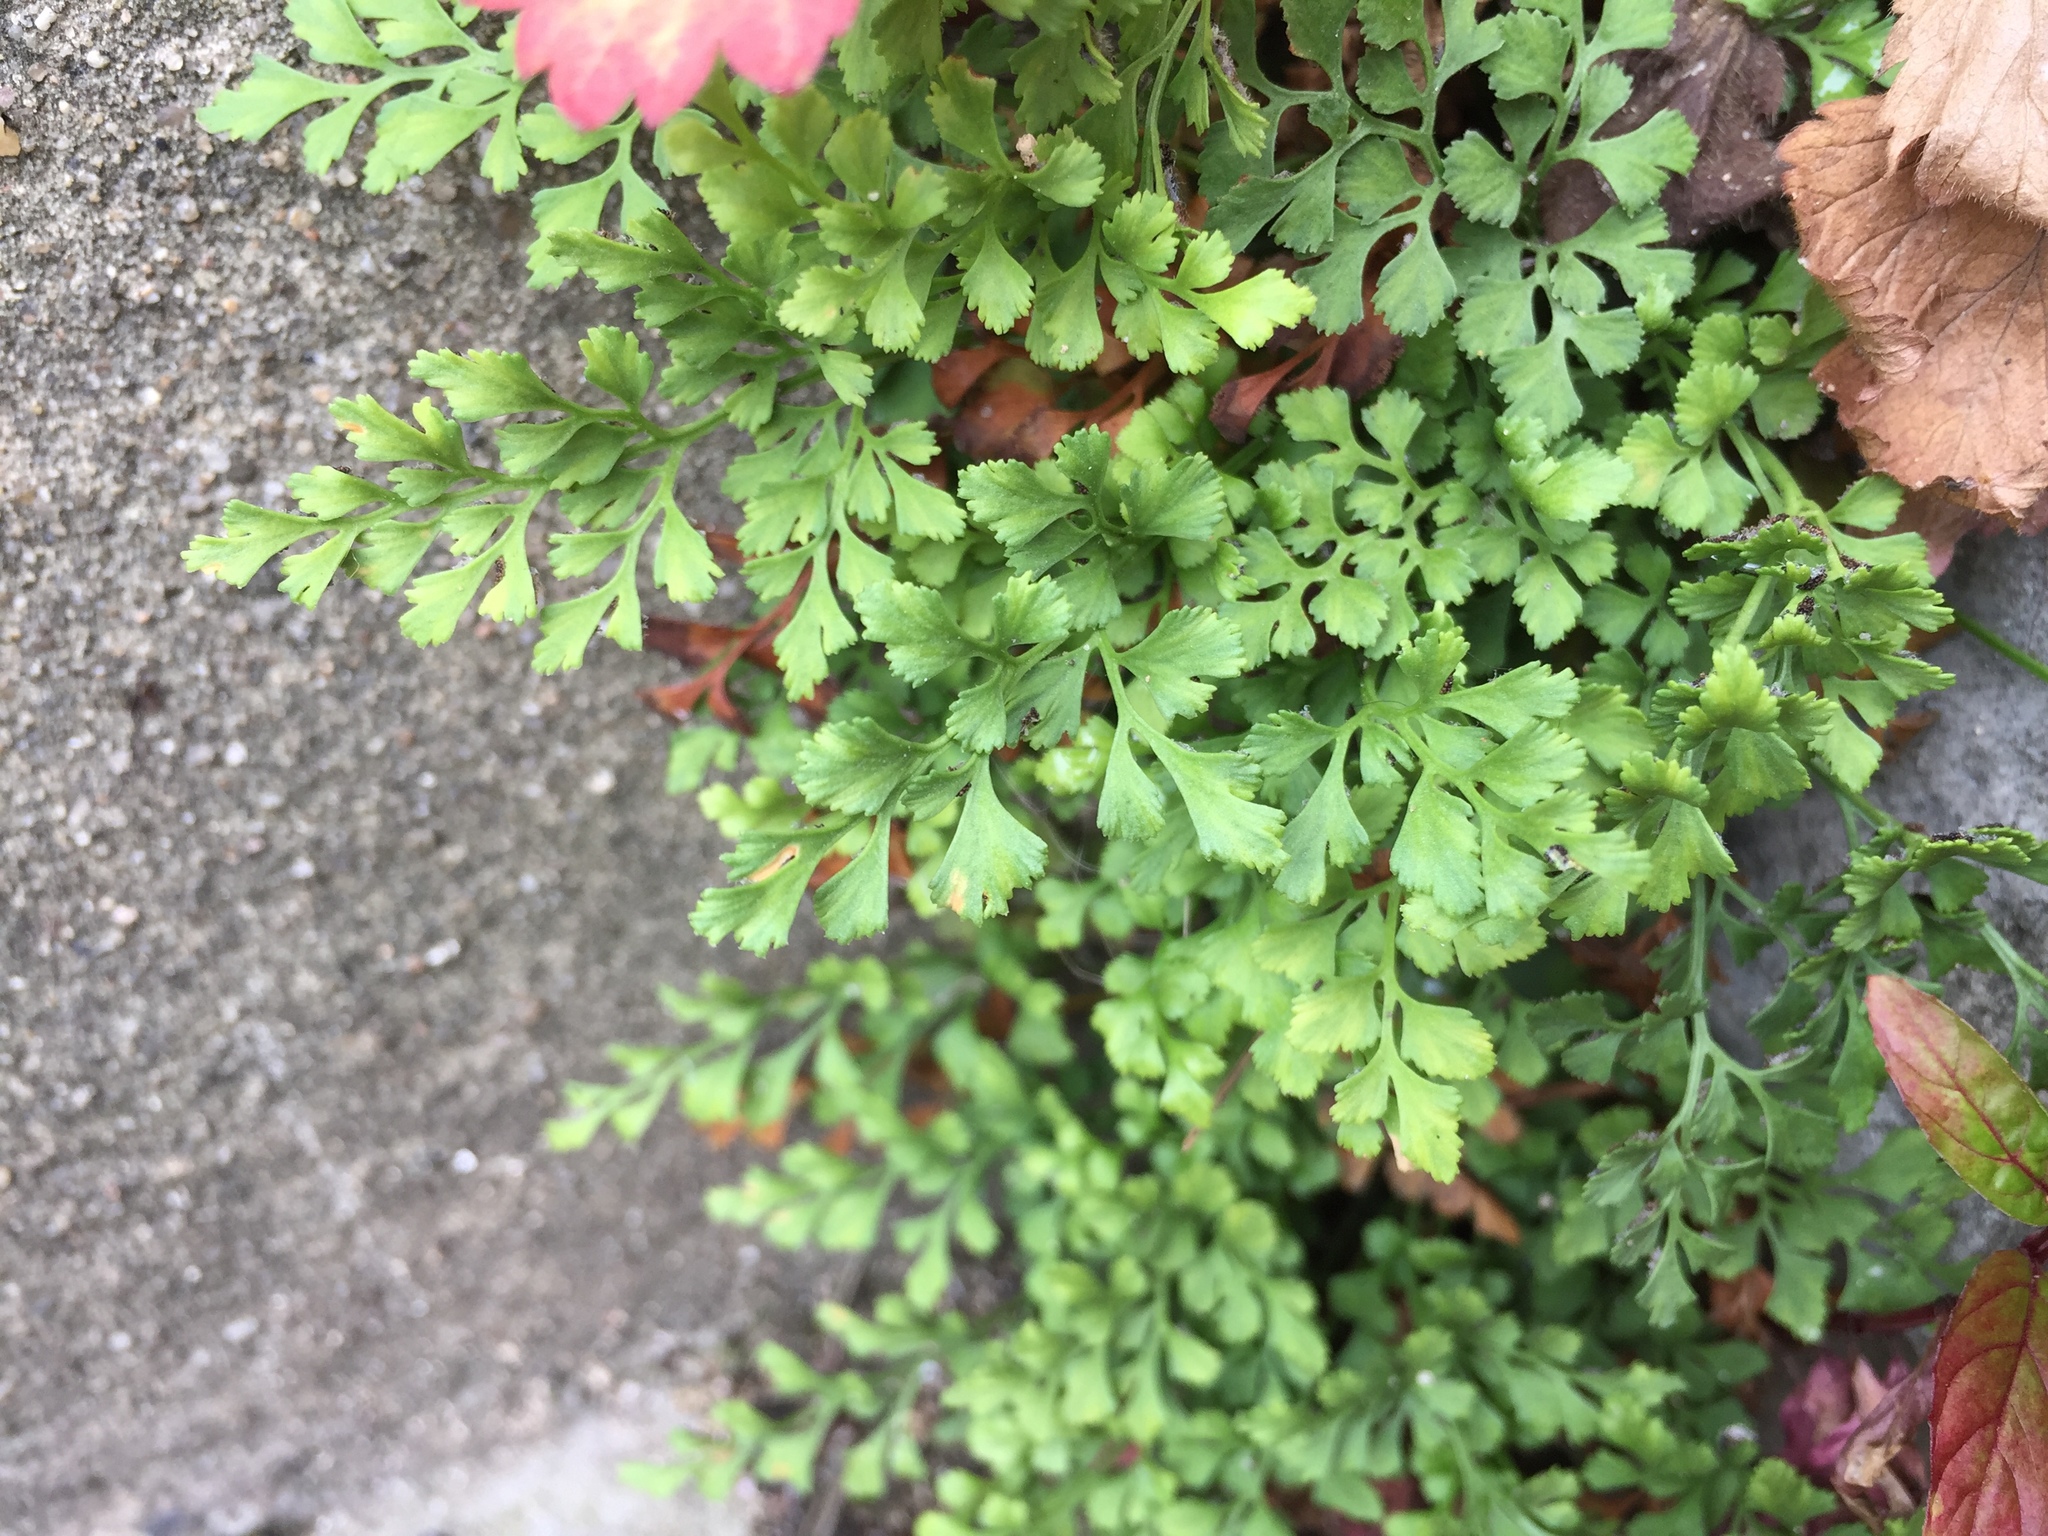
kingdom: Plantae
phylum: Tracheophyta
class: Polypodiopsida
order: Polypodiales
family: Aspleniaceae
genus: Asplenium
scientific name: Asplenium ruta-muraria
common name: Wall-rue
